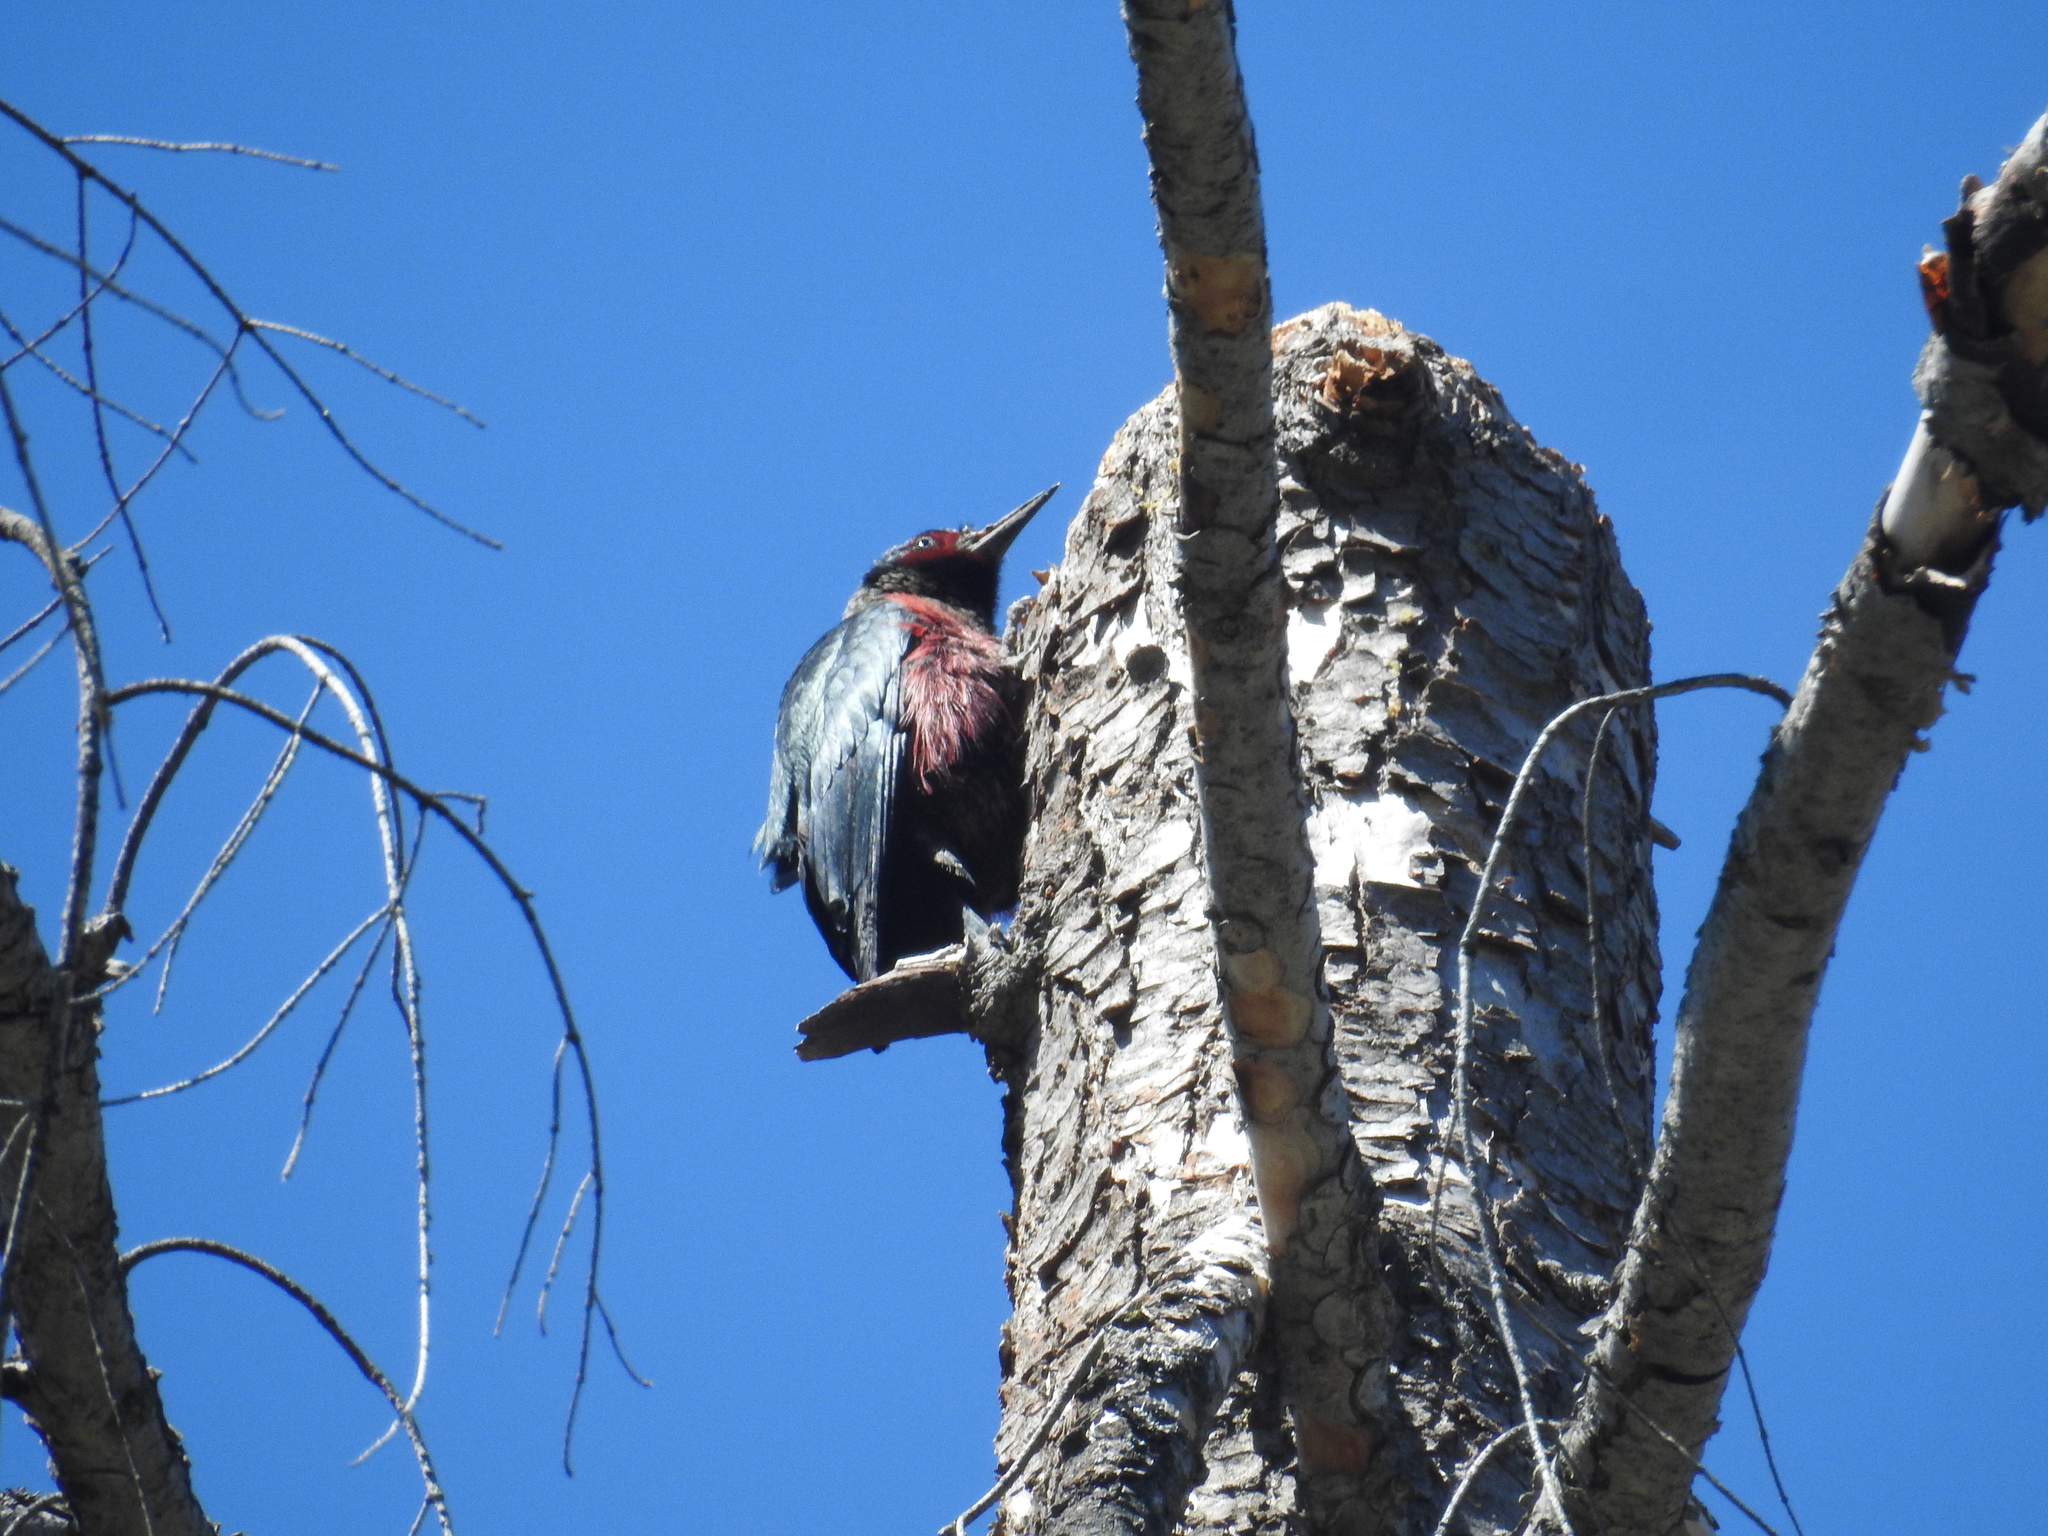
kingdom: Animalia
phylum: Chordata
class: Aves
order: Piciformes
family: Picidae
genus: Melanerpes
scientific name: Melanerpes lewis
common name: Lewis's woodpecker
